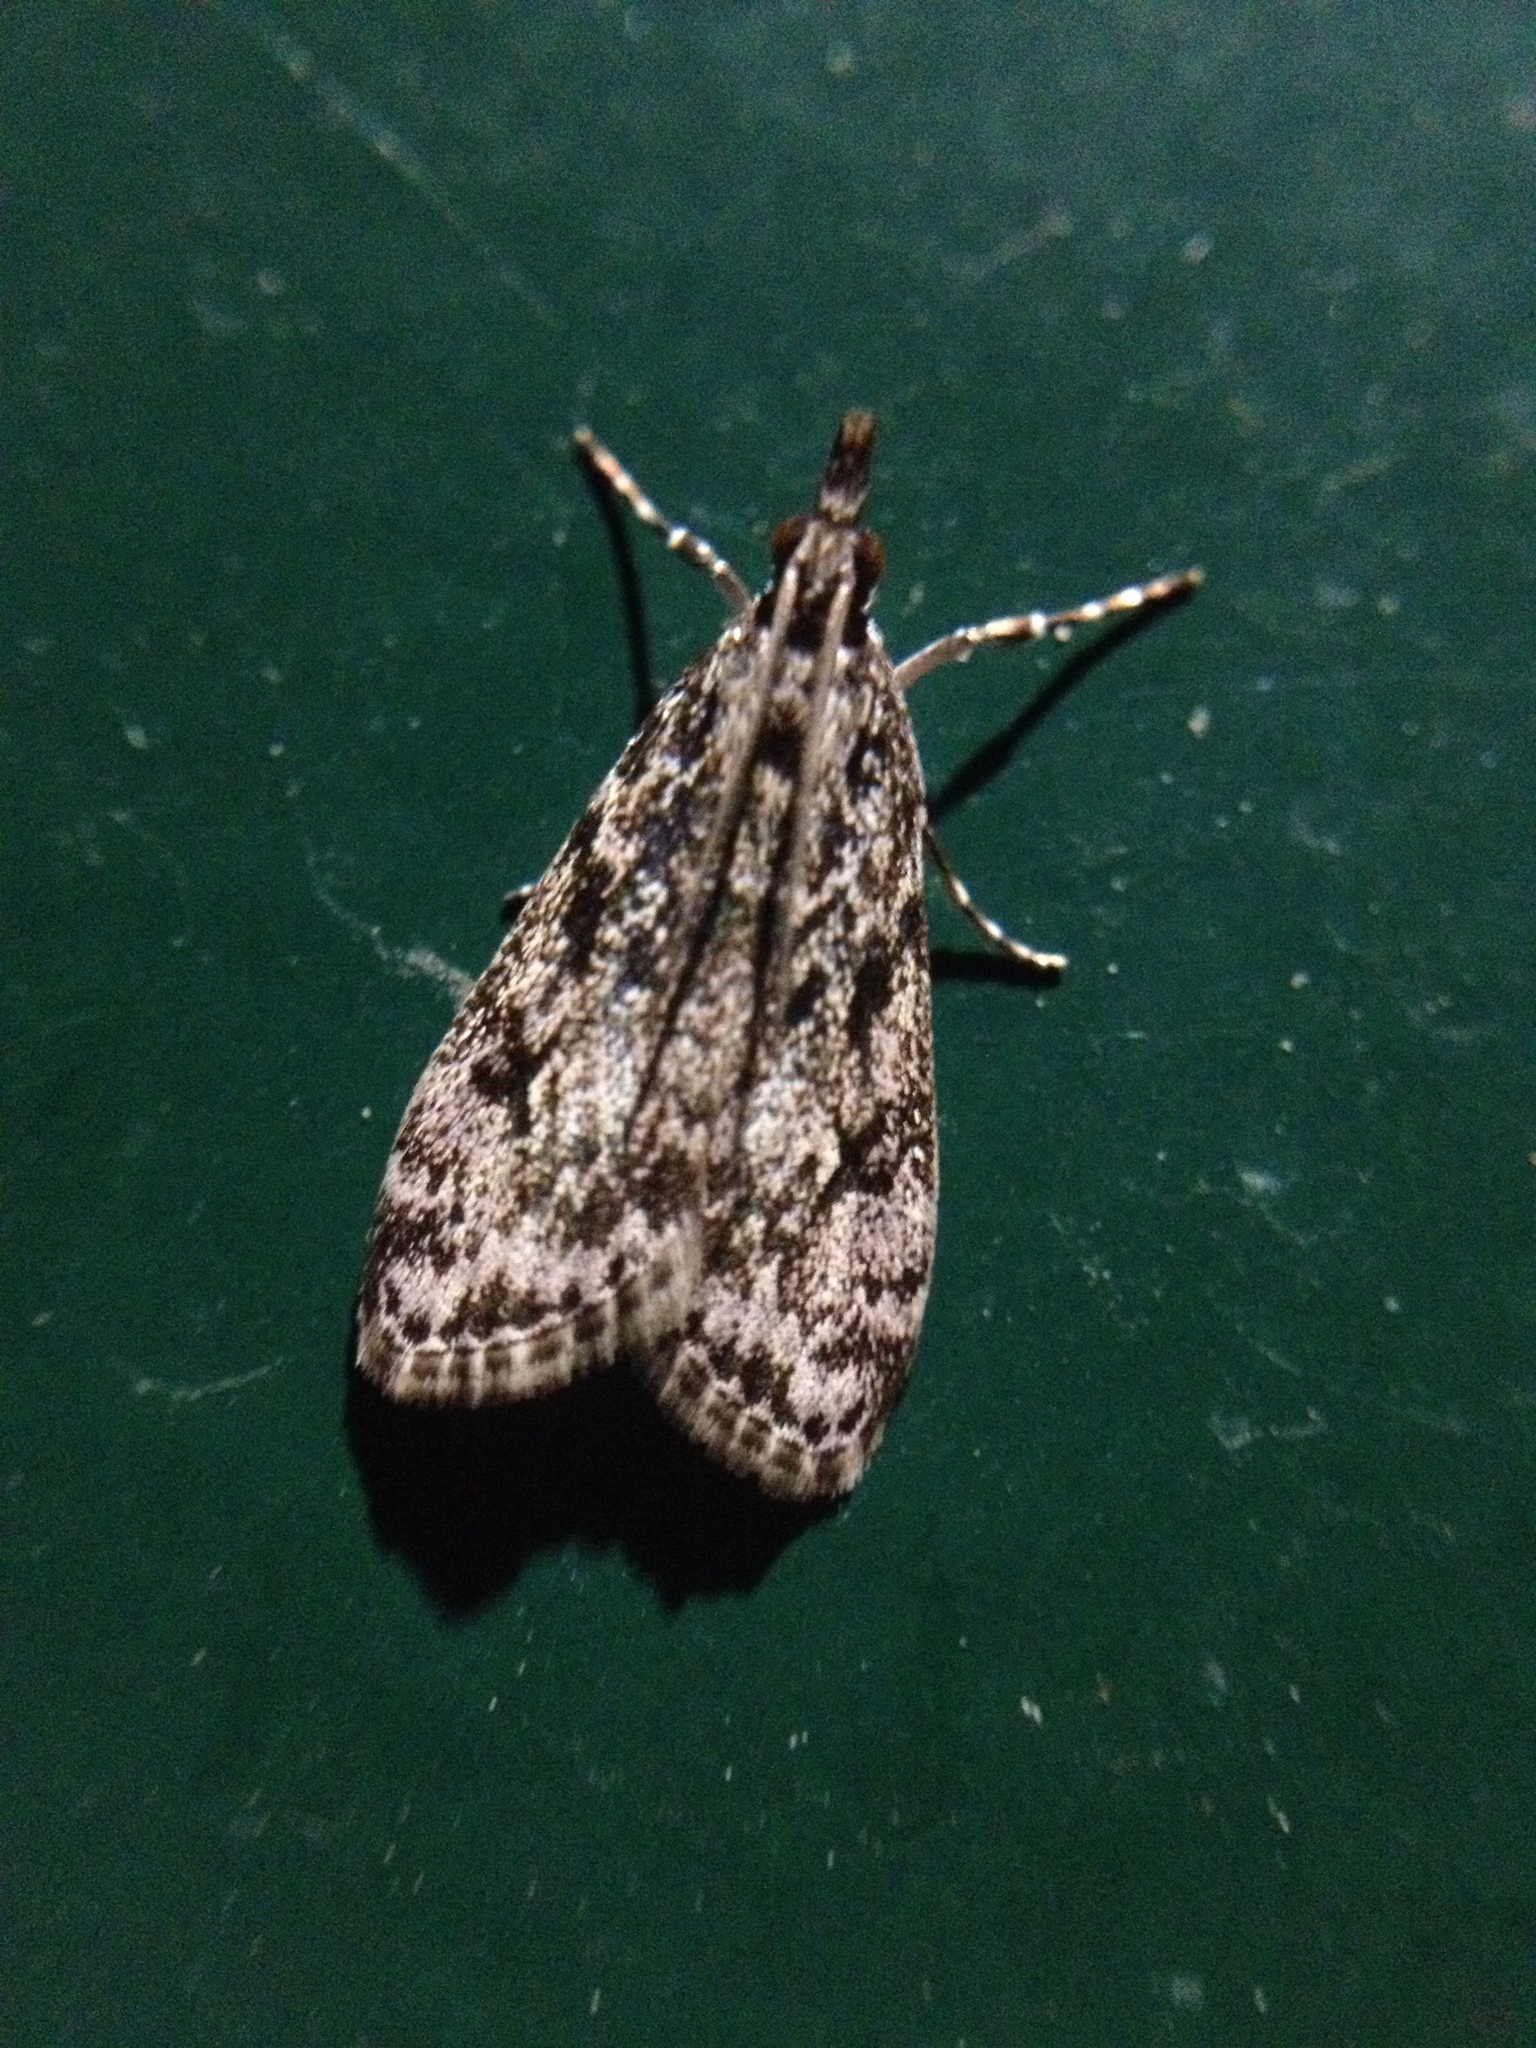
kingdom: Animalia
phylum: Arthropoda
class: Insecta
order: Lepidoptera
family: Crambidae
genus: Eudonia
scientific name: Eudonia truncicolella
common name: Ground-moss grey
